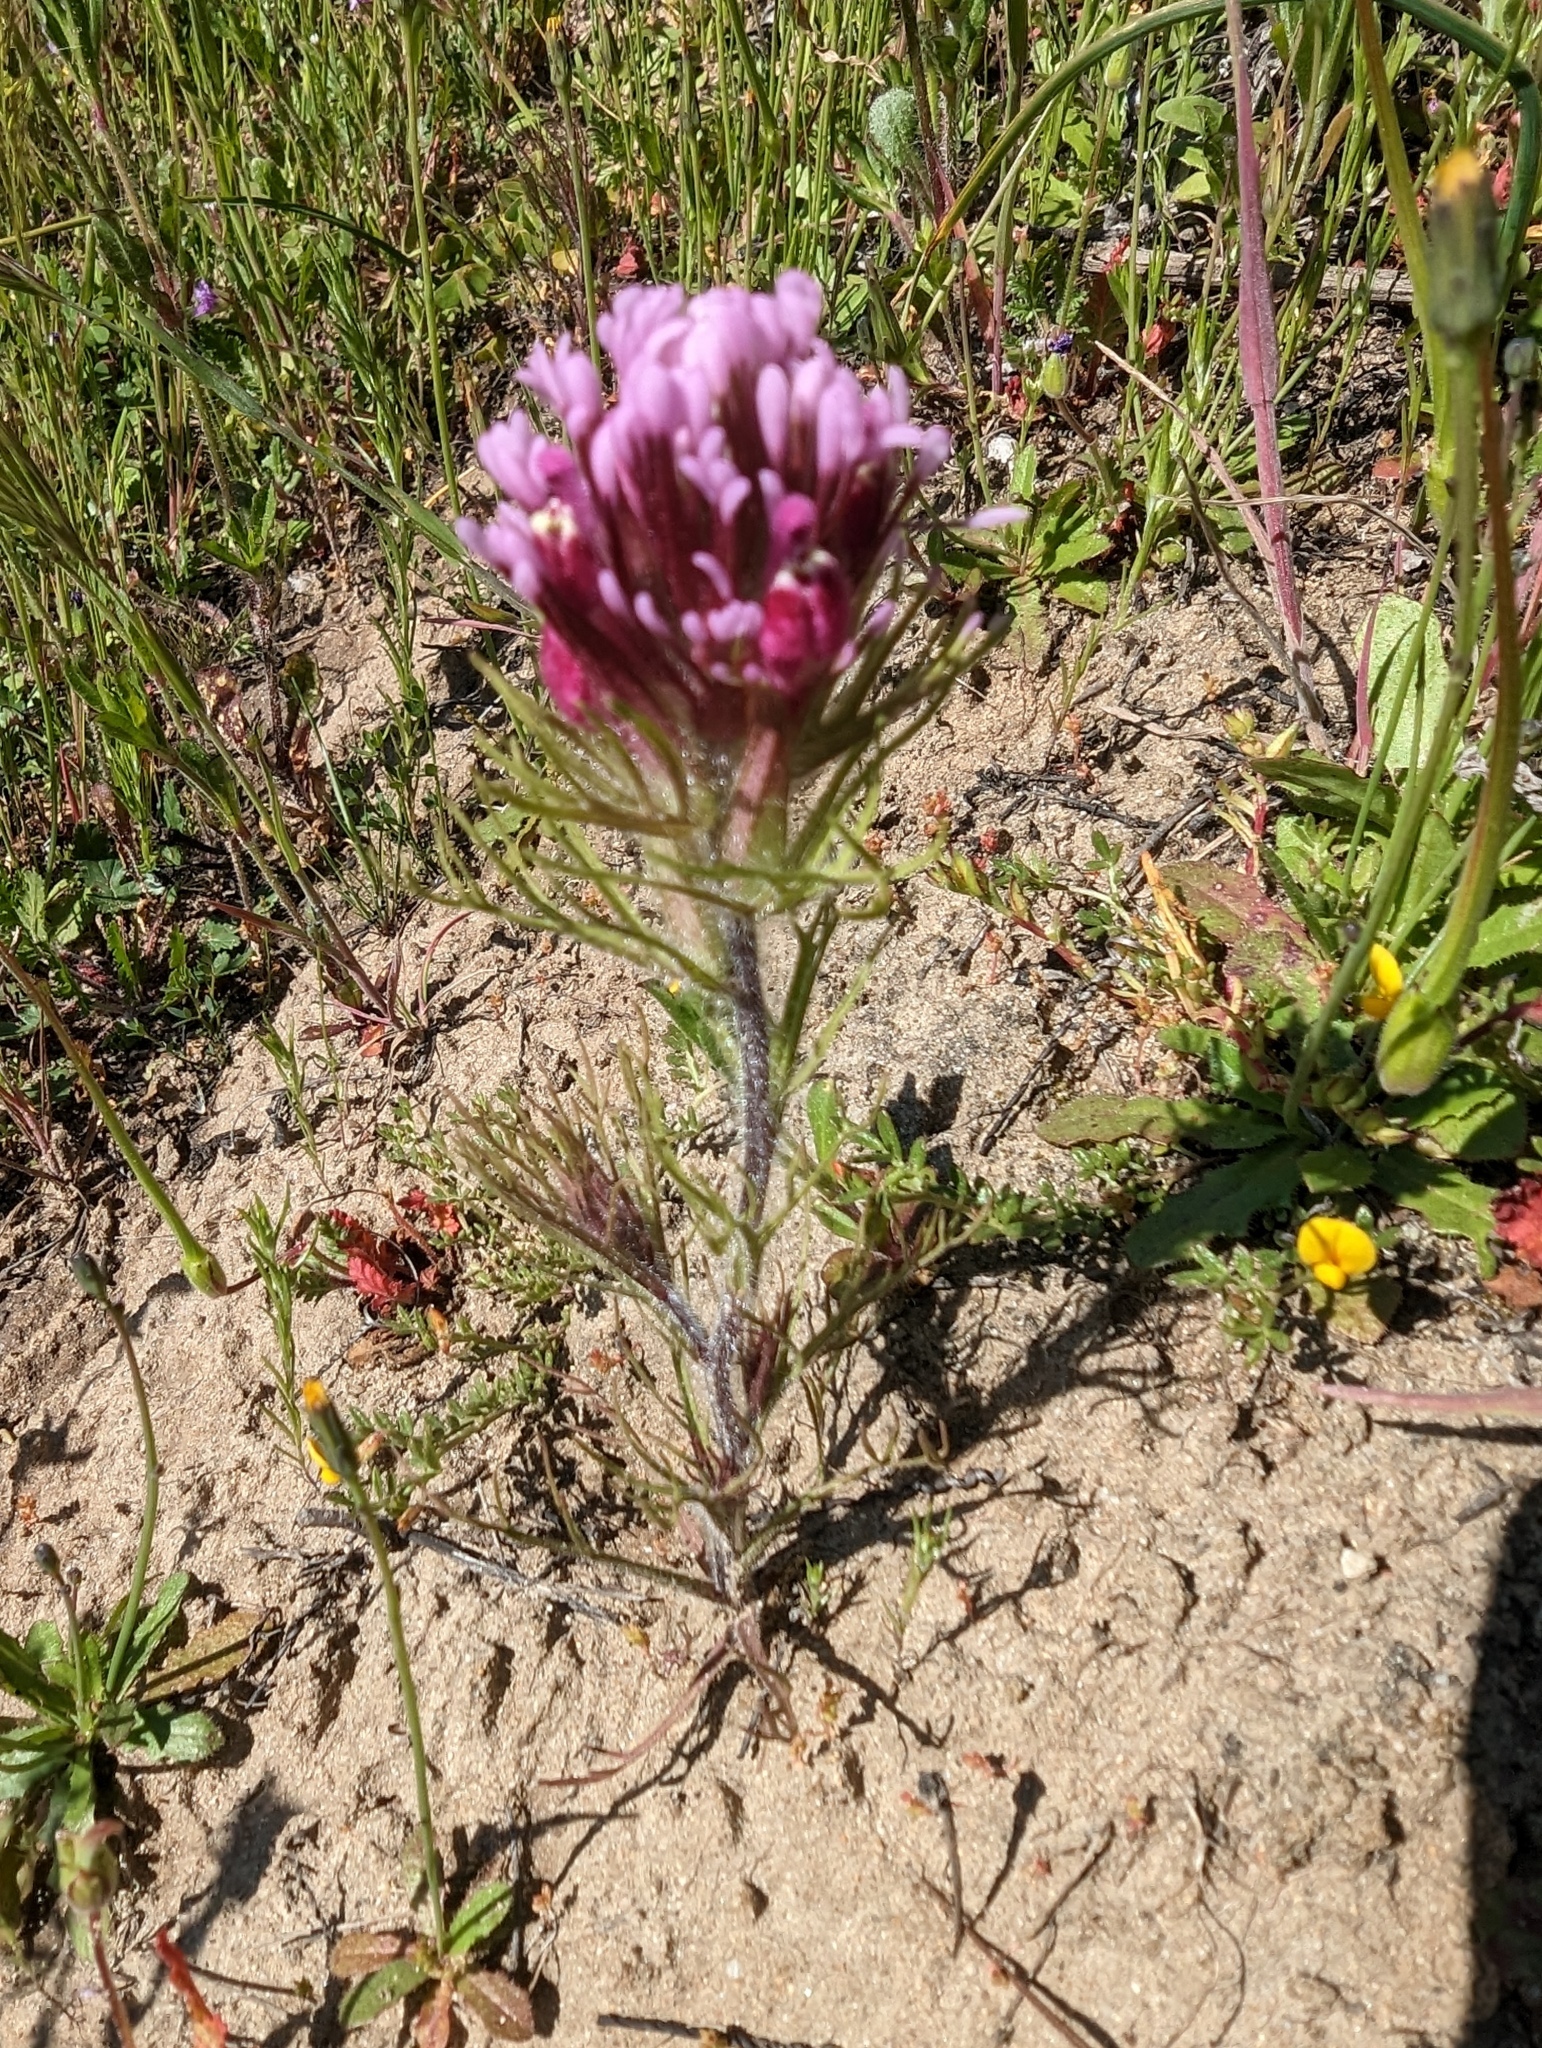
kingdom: Plantae
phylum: Tracheophyta
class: Magnoliopsida
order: Lamiales
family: Orobanchaceae
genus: Castilleja
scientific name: Castilleja exserta
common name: Purple owl-clover
